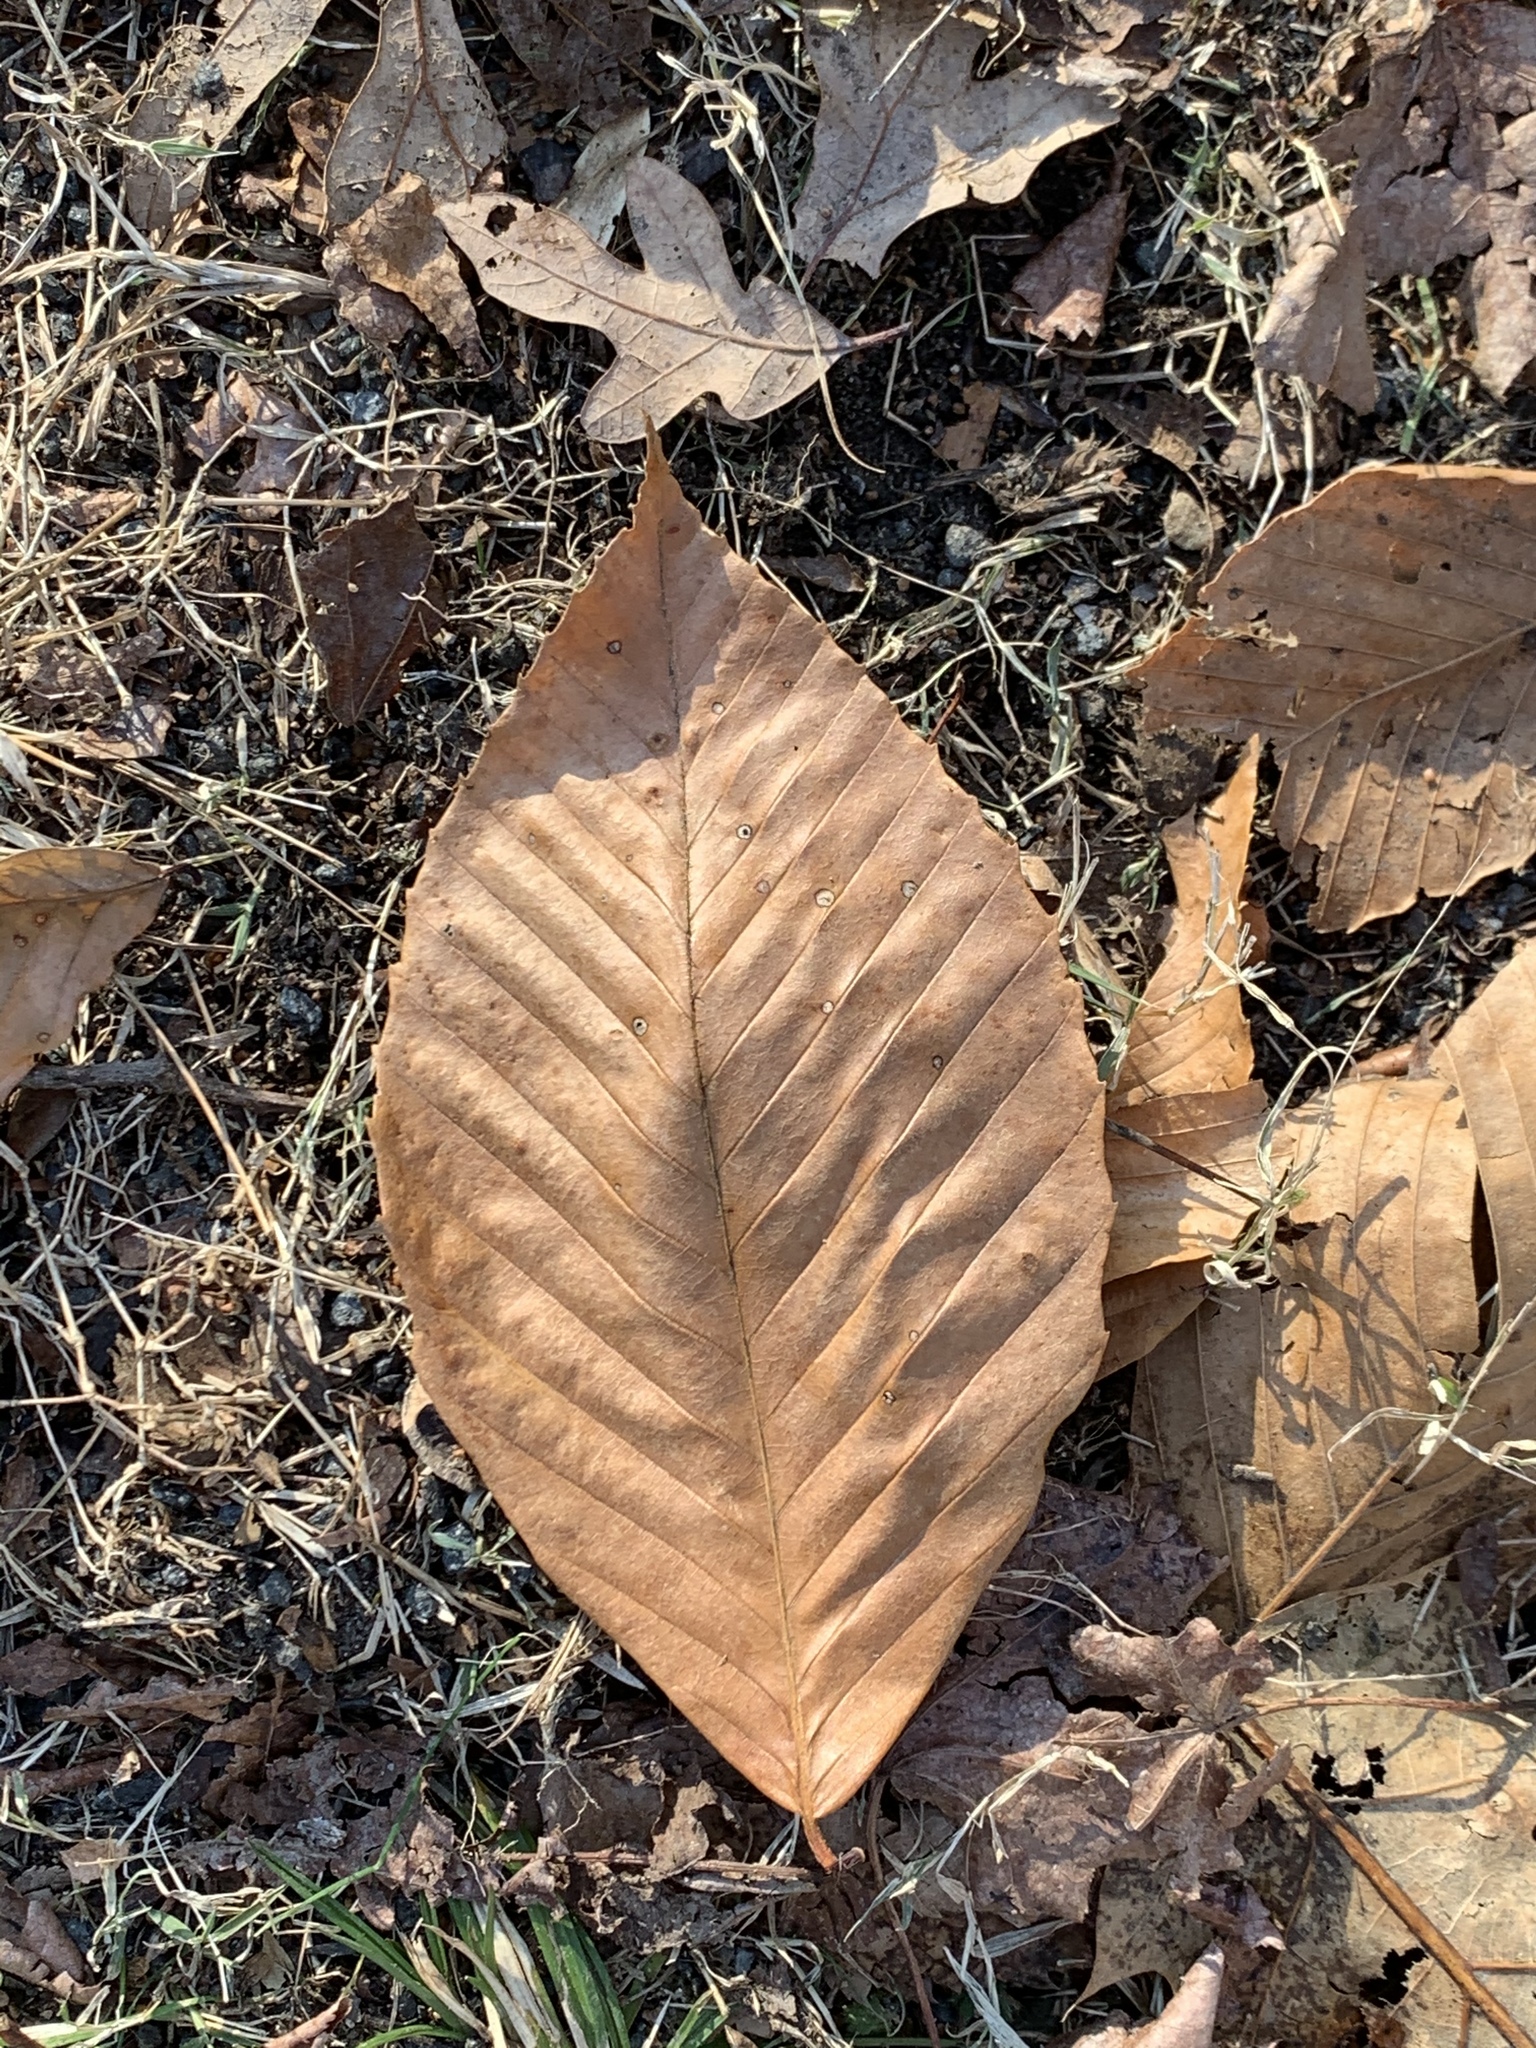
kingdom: Plantae
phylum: Tracheophyta
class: Magnoliopsida
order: Fagales
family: Fagaceae
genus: Fagus
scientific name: Fagus grandifolia
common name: American beech
